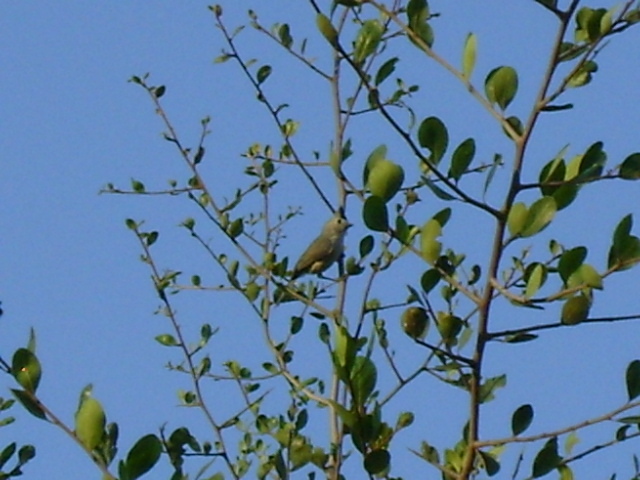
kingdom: Animalia
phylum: Chordata
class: Aves
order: Passeriformes
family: Paridae
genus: Baeolophus
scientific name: Baeolophus atricristatus
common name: Black-crested titmouse
